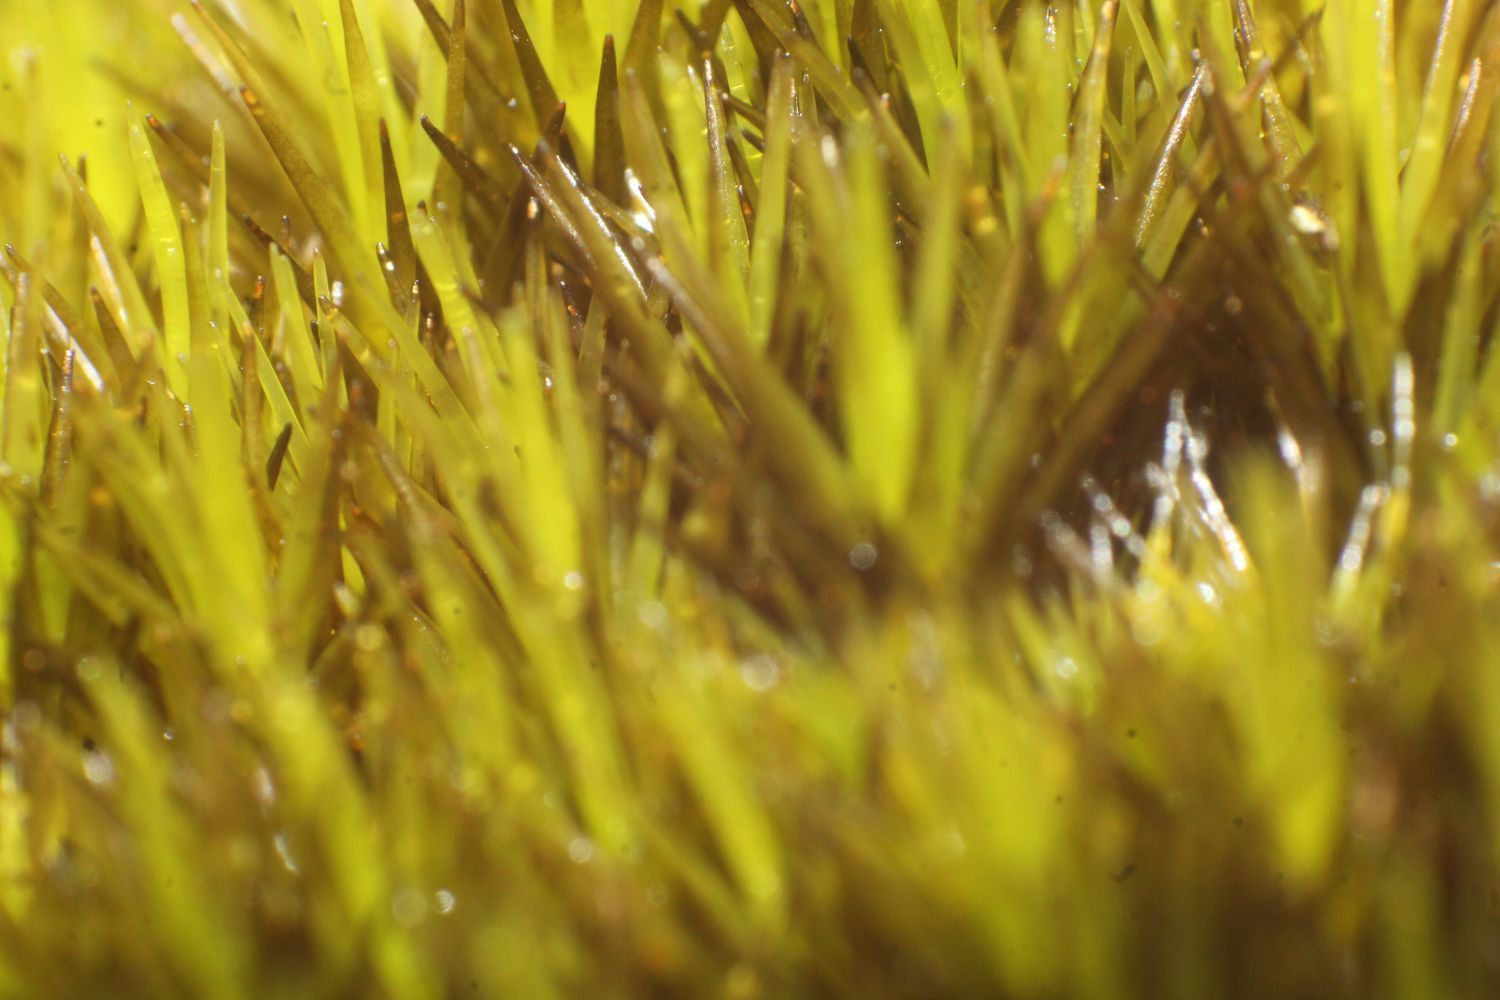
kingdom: Plantae
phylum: Bryophyta
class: Bryopsida
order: Dicranales
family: Leucobryaceae
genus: Campylopus
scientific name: Campylopus bicolor
